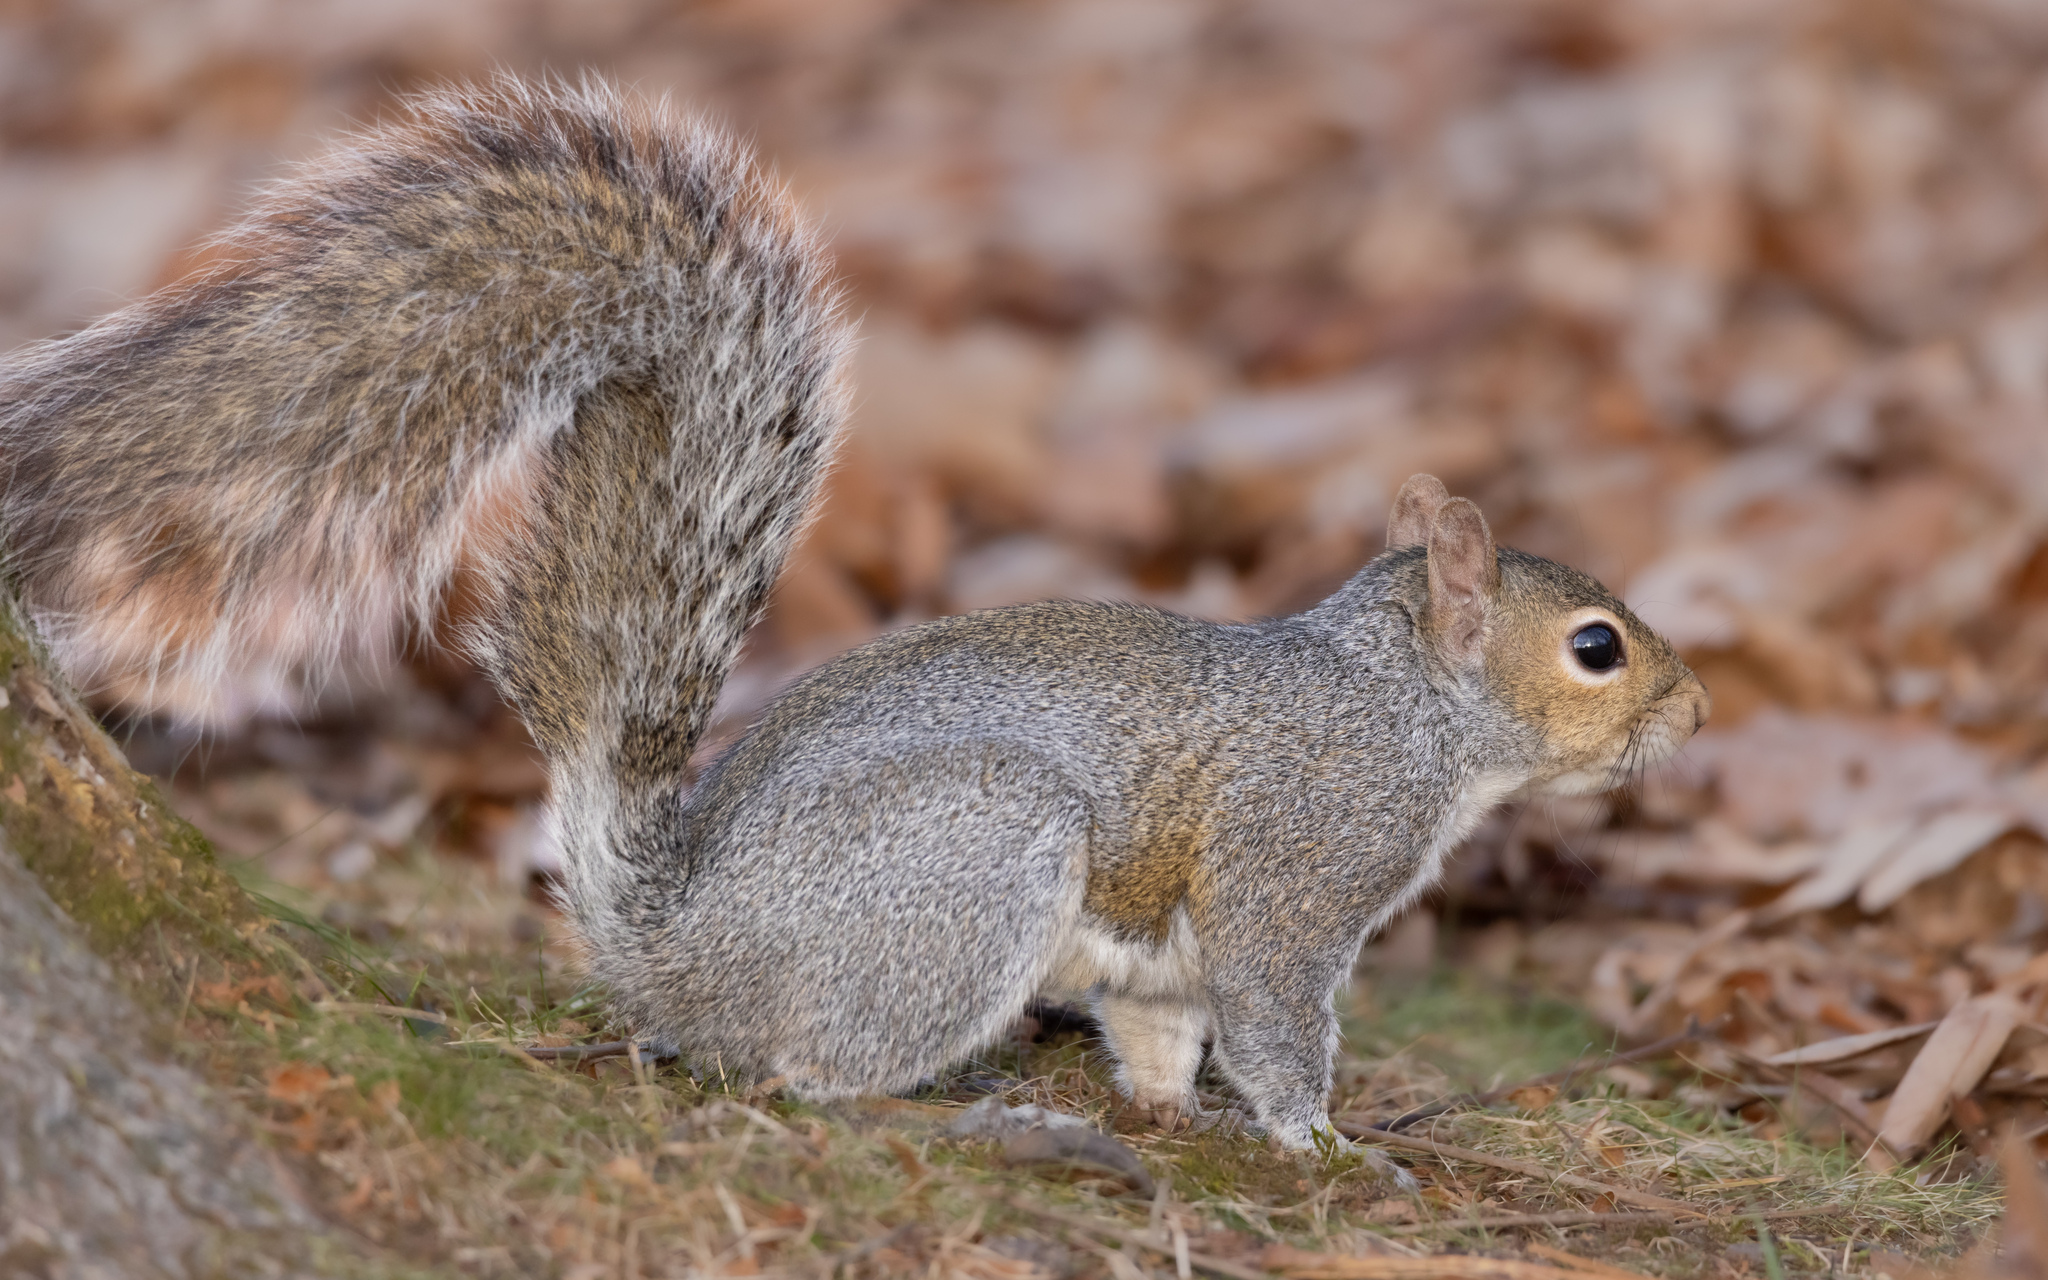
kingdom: Animalia
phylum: Chordata
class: Mammalia
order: Rodentia
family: Sciuridae
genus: Sciurus
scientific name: Sciurus carolinensis
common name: Eastern gray squirrel
